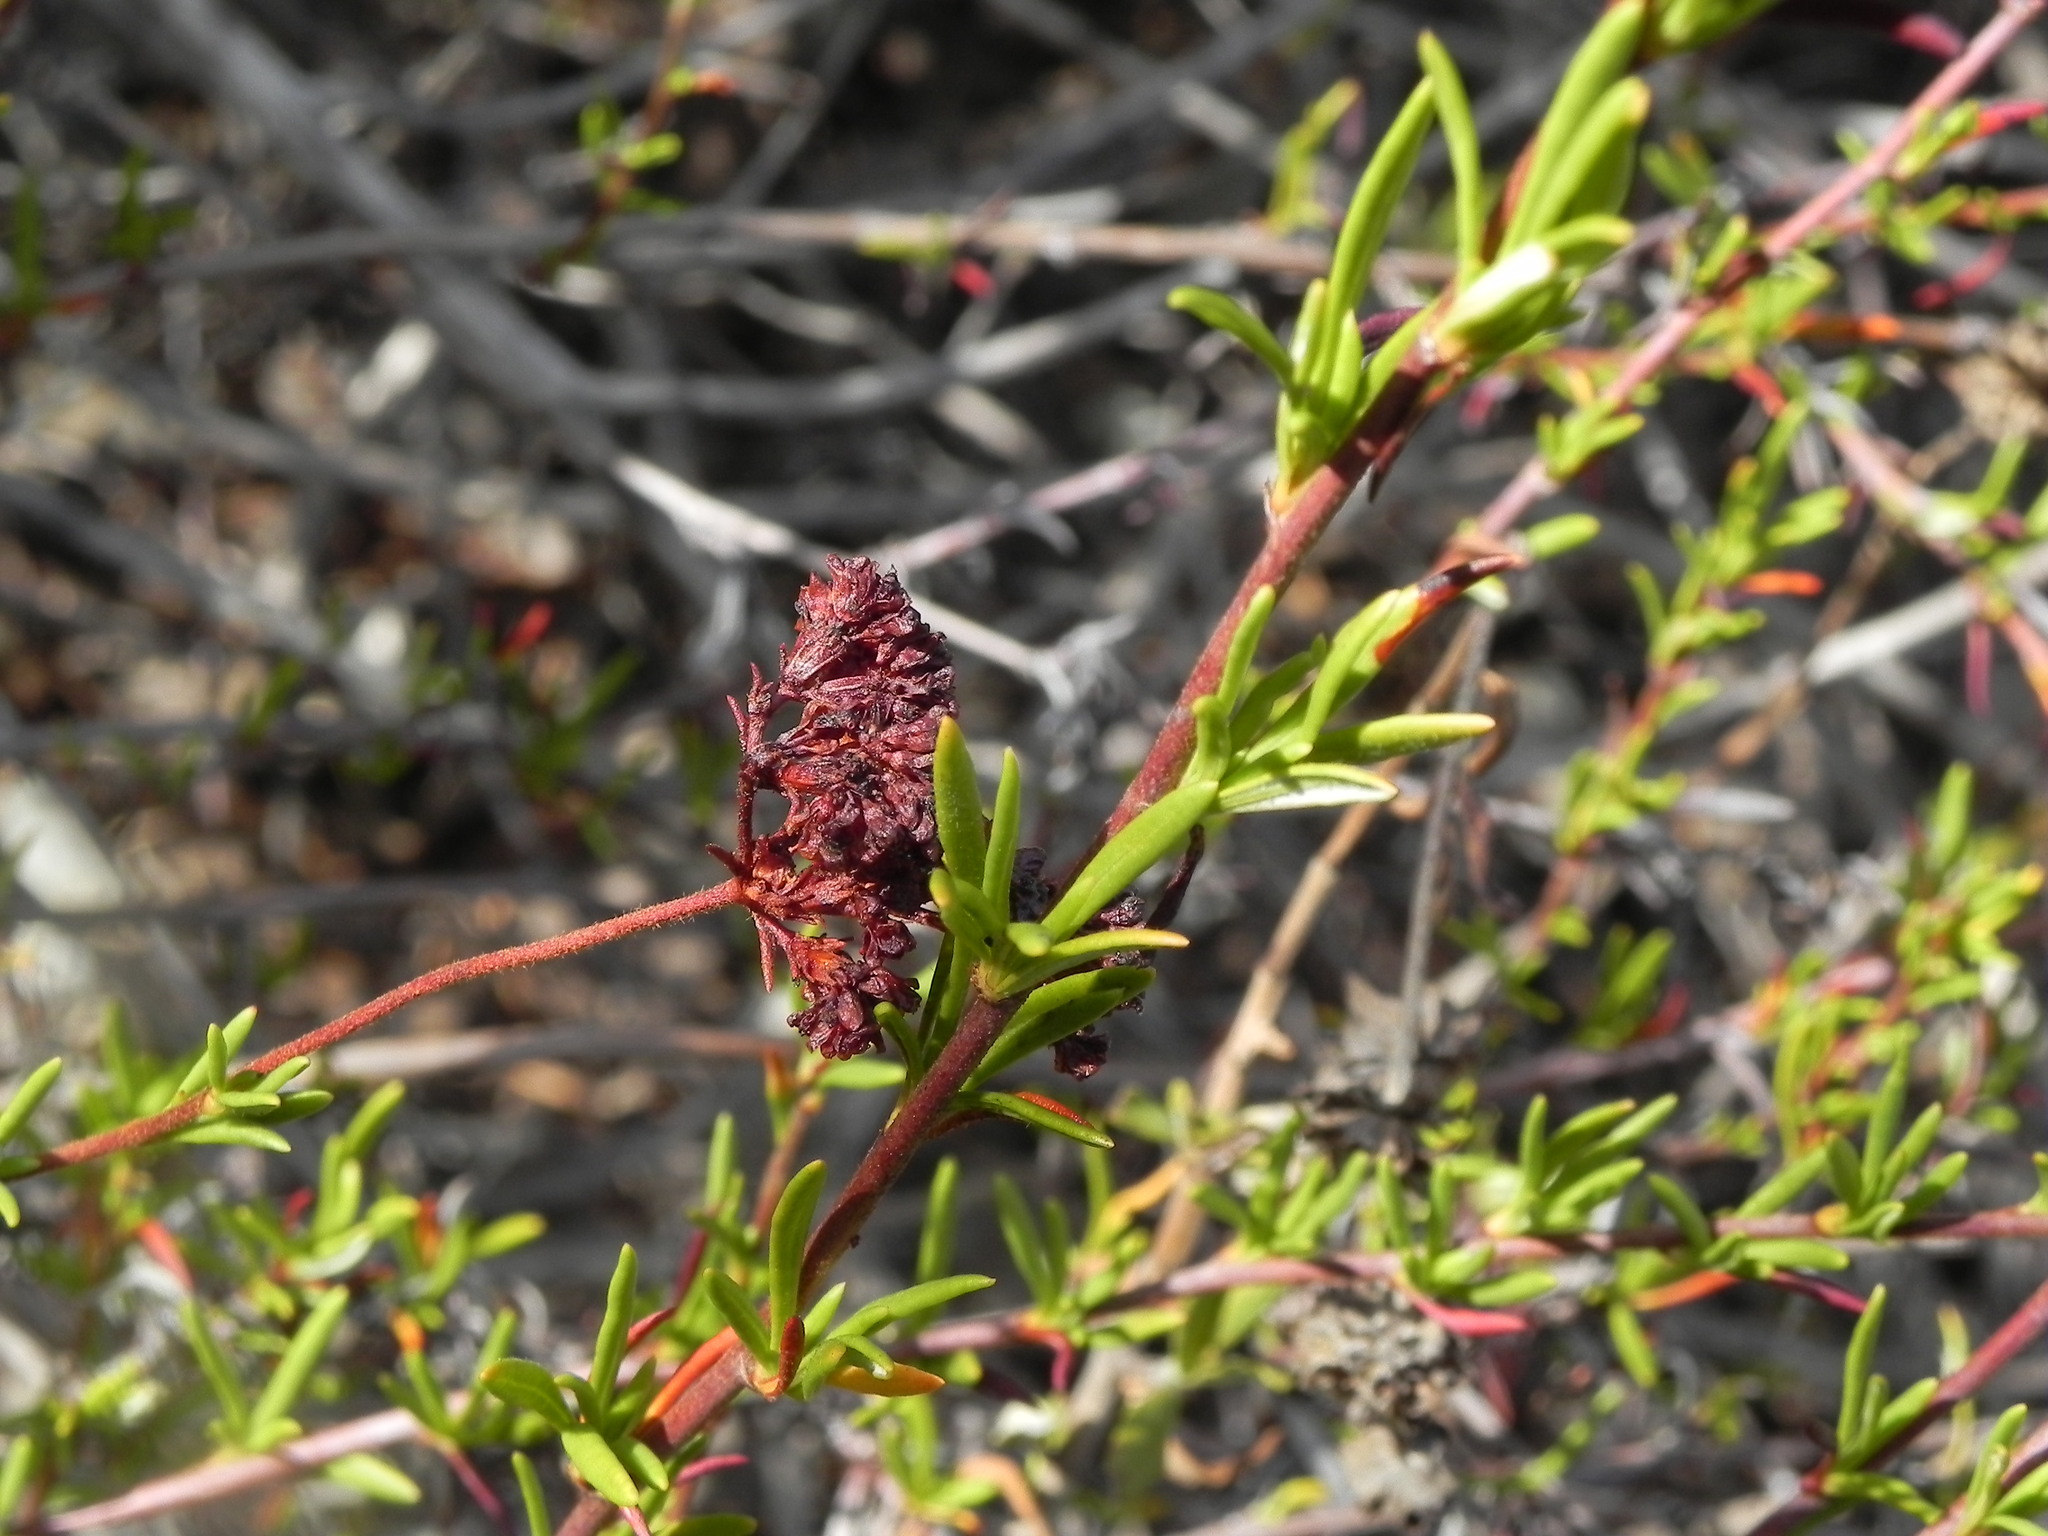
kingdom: Plantae
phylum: Tracheophyta
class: Magnoliopsida
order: Caryophyllales
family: Polygonaceae
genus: Eriogonum
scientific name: Eriogonum fasciculatum
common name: California wild buckwheat
